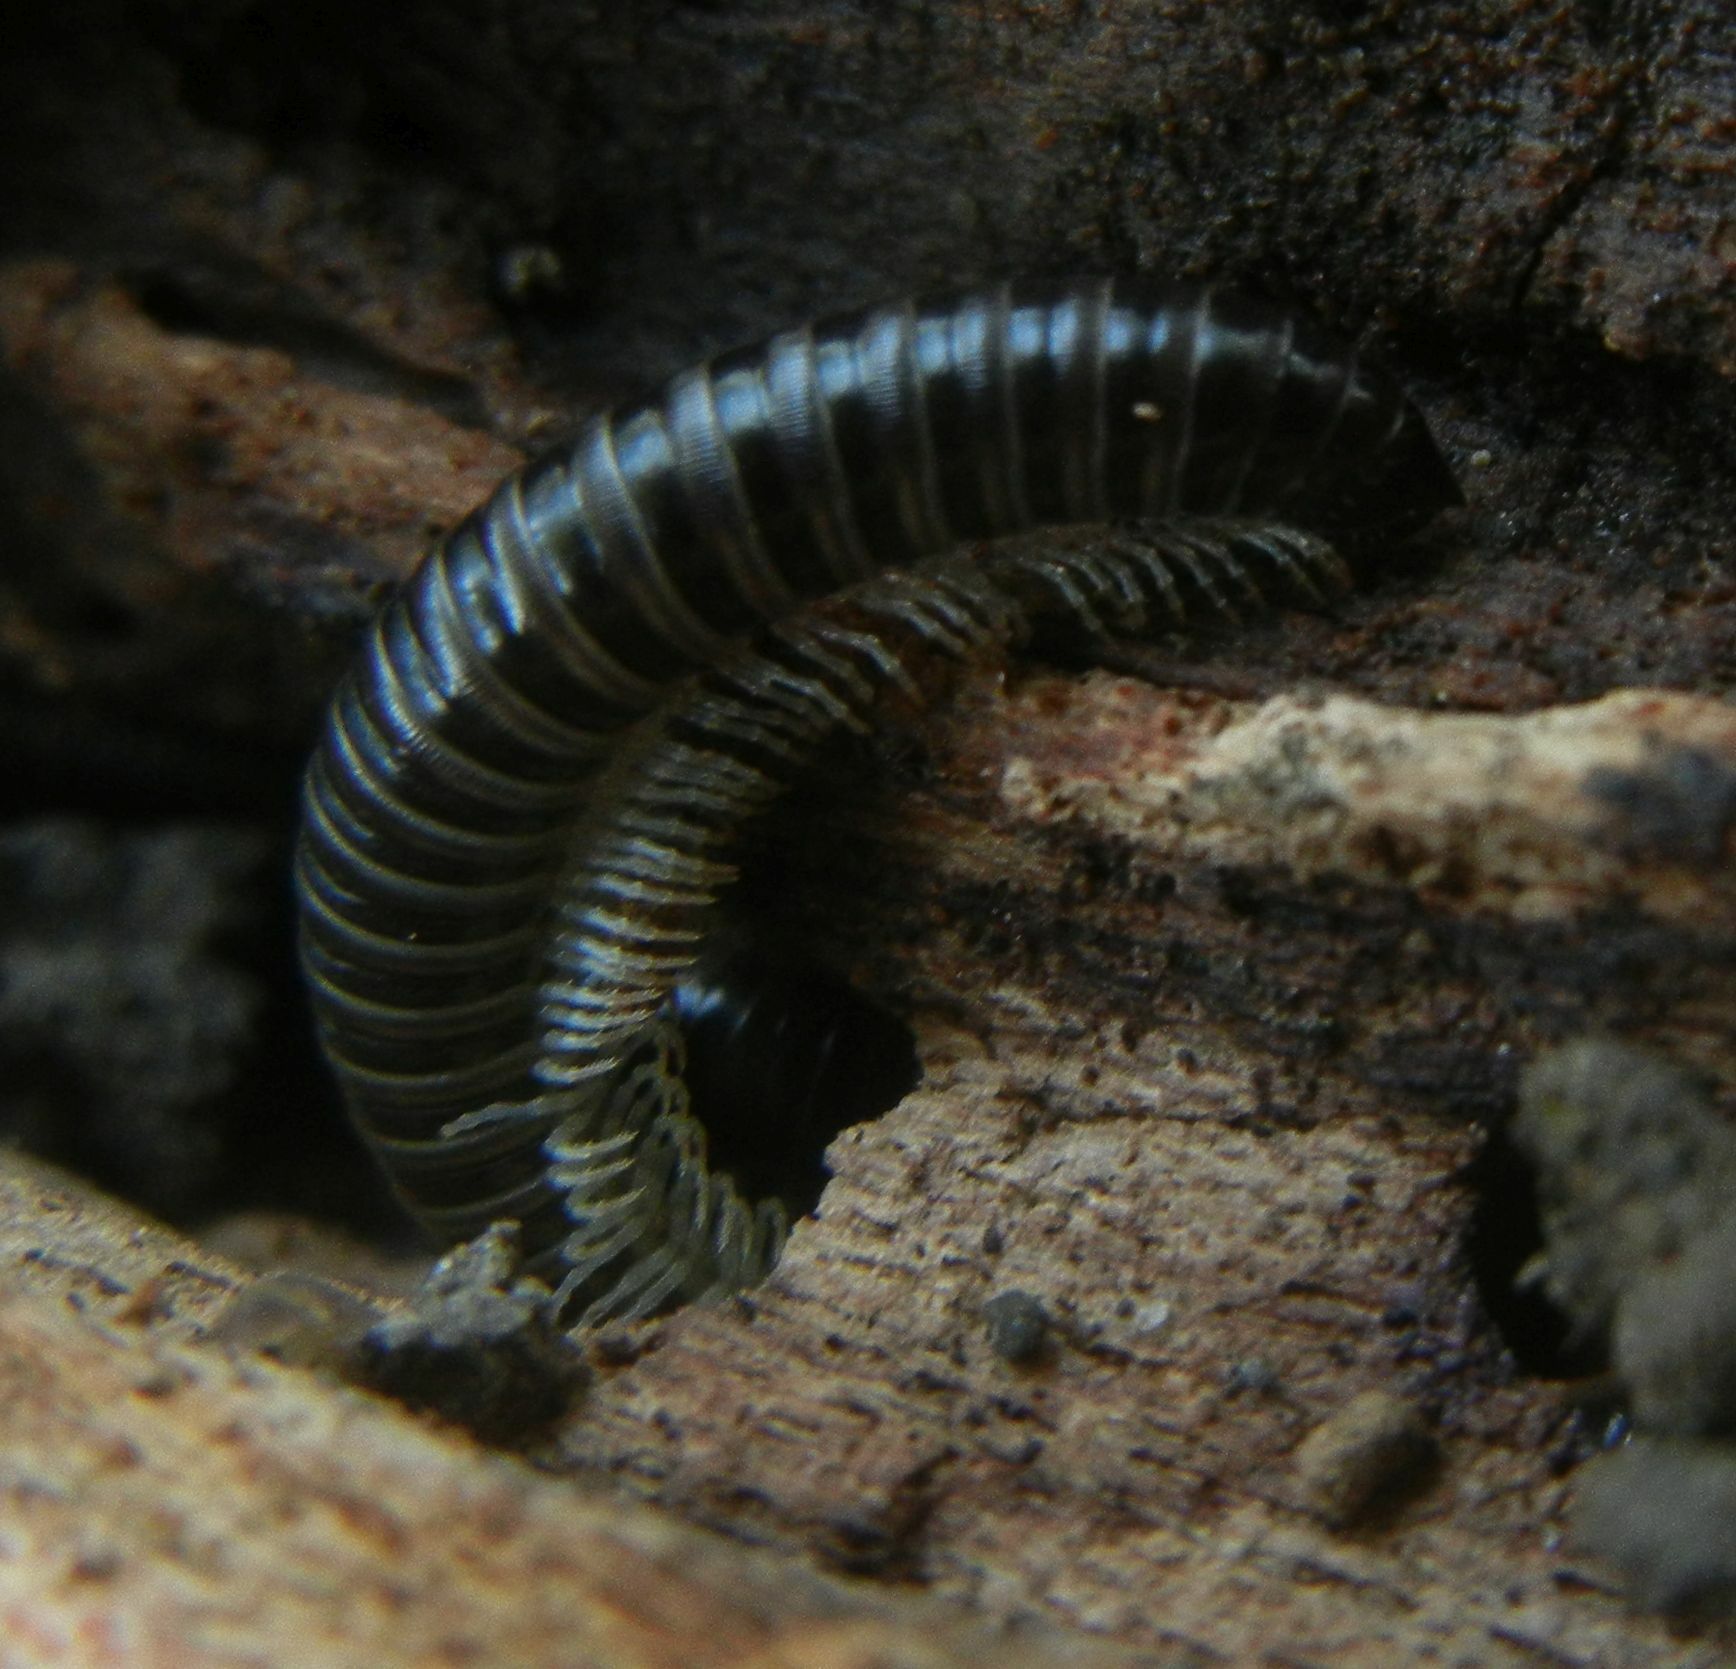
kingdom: Animalia
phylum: Arthropoda
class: Diplopoda
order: Julida
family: Julidae
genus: Tachypodoiulus
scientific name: Tachypodoiulus niger
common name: White-legged snake millipede
